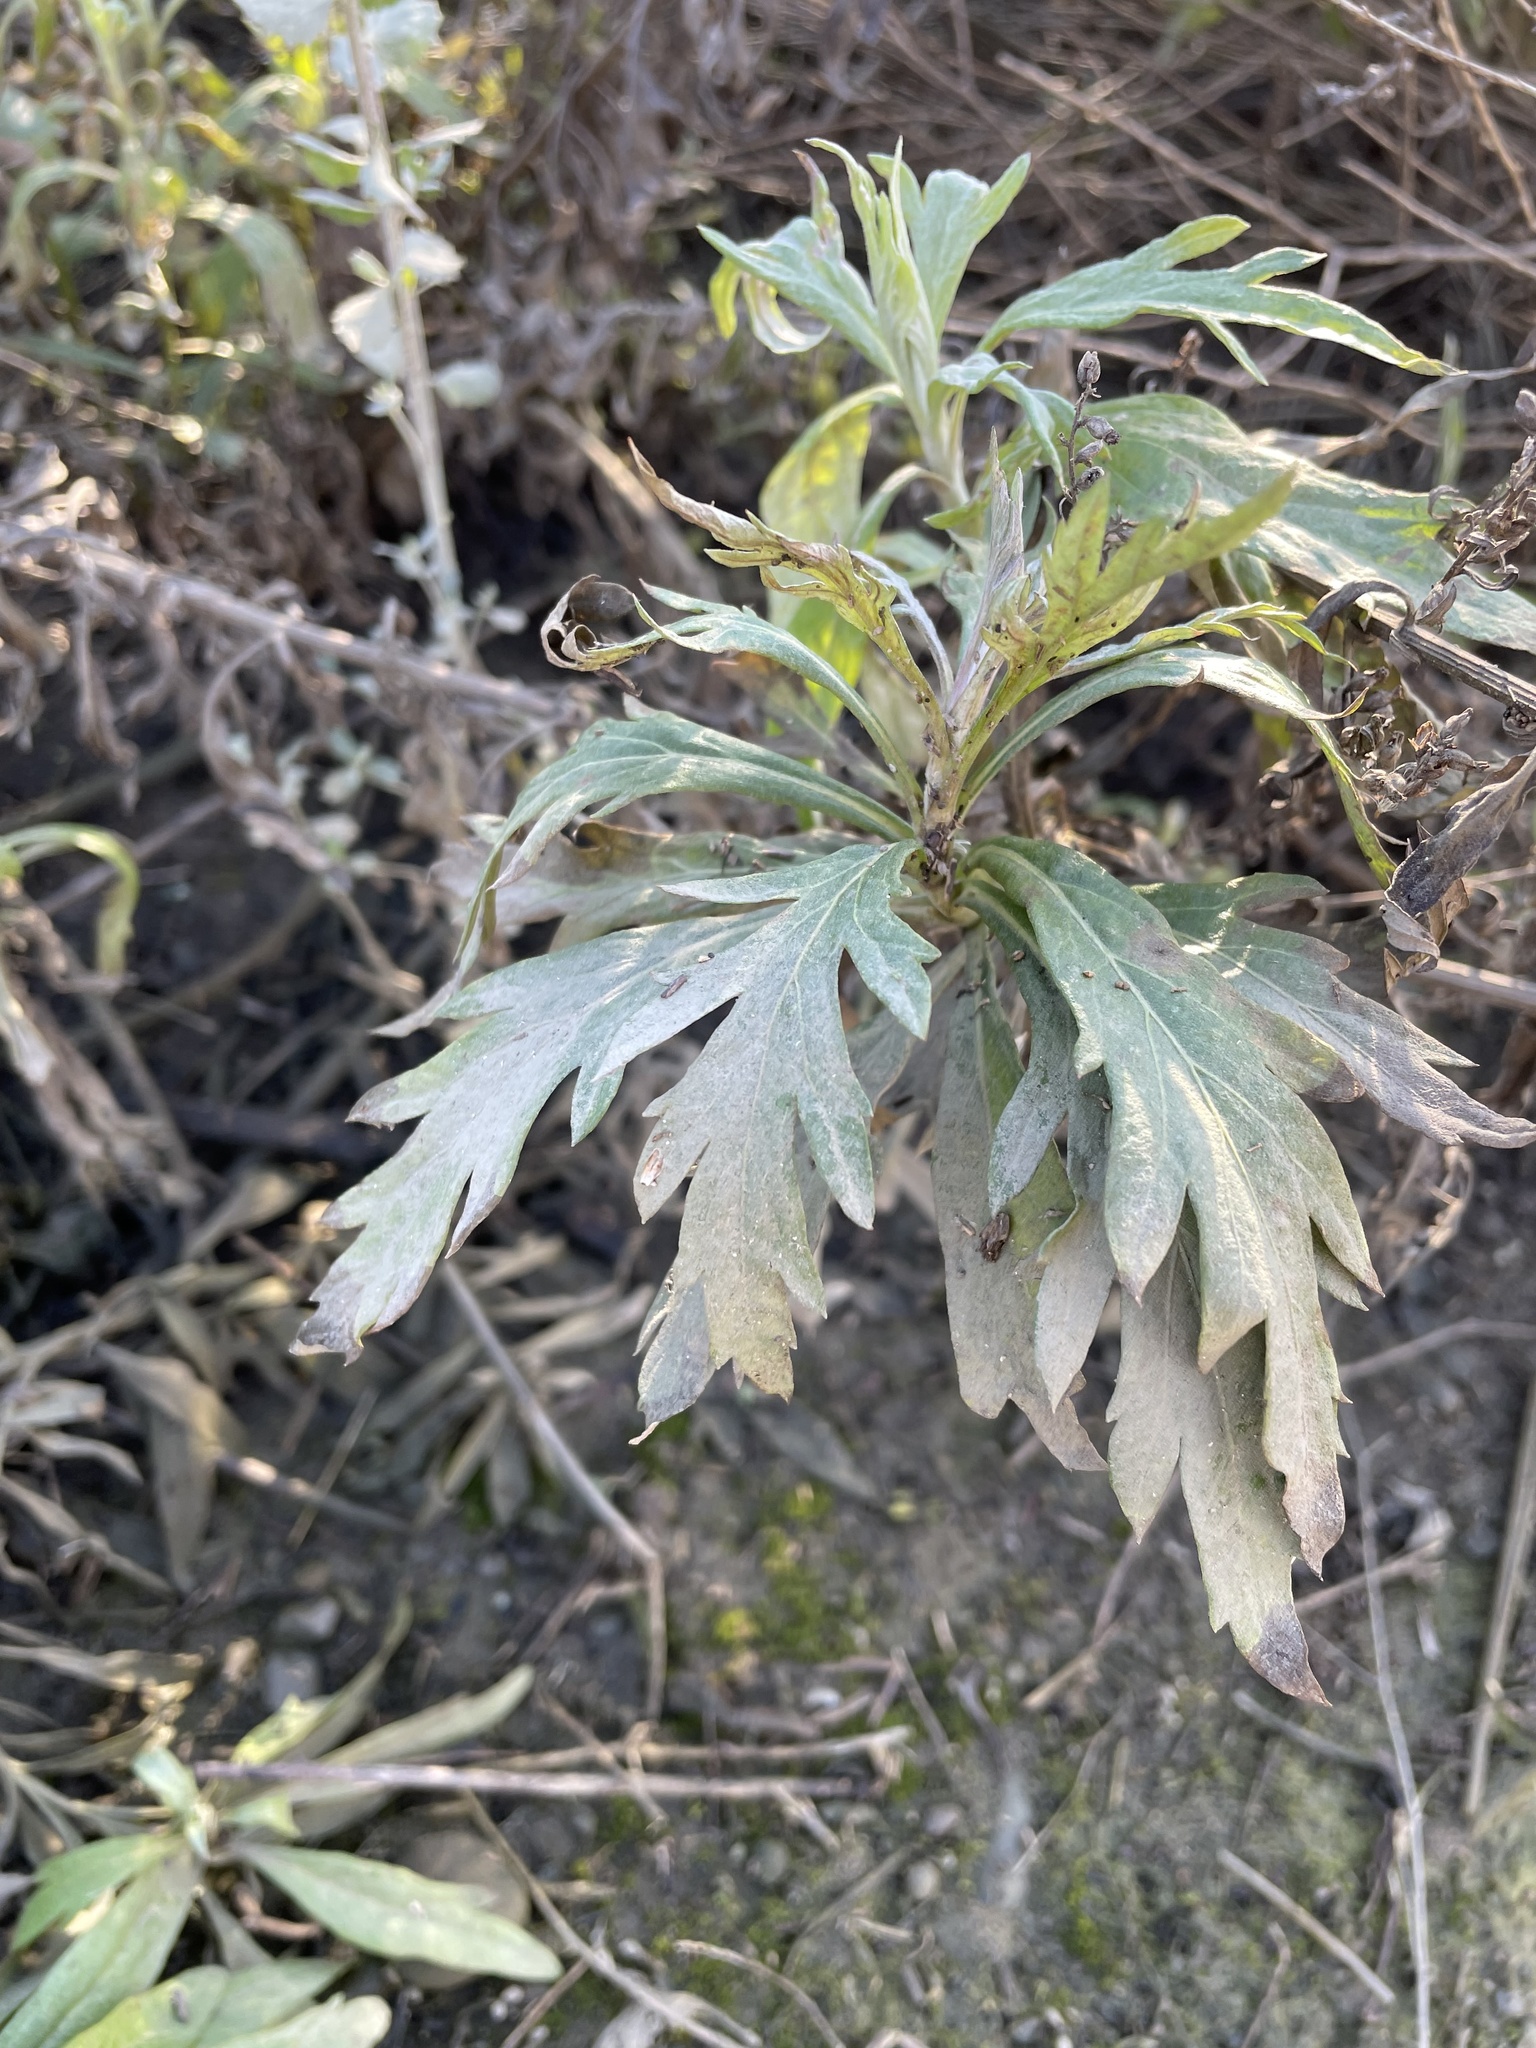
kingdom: Plantae
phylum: Tracheophyta
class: Magnoliopsida
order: Asterales
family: Asteraceae
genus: Artemisia
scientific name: Artemisia douglasiana
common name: Northwest mugwort
